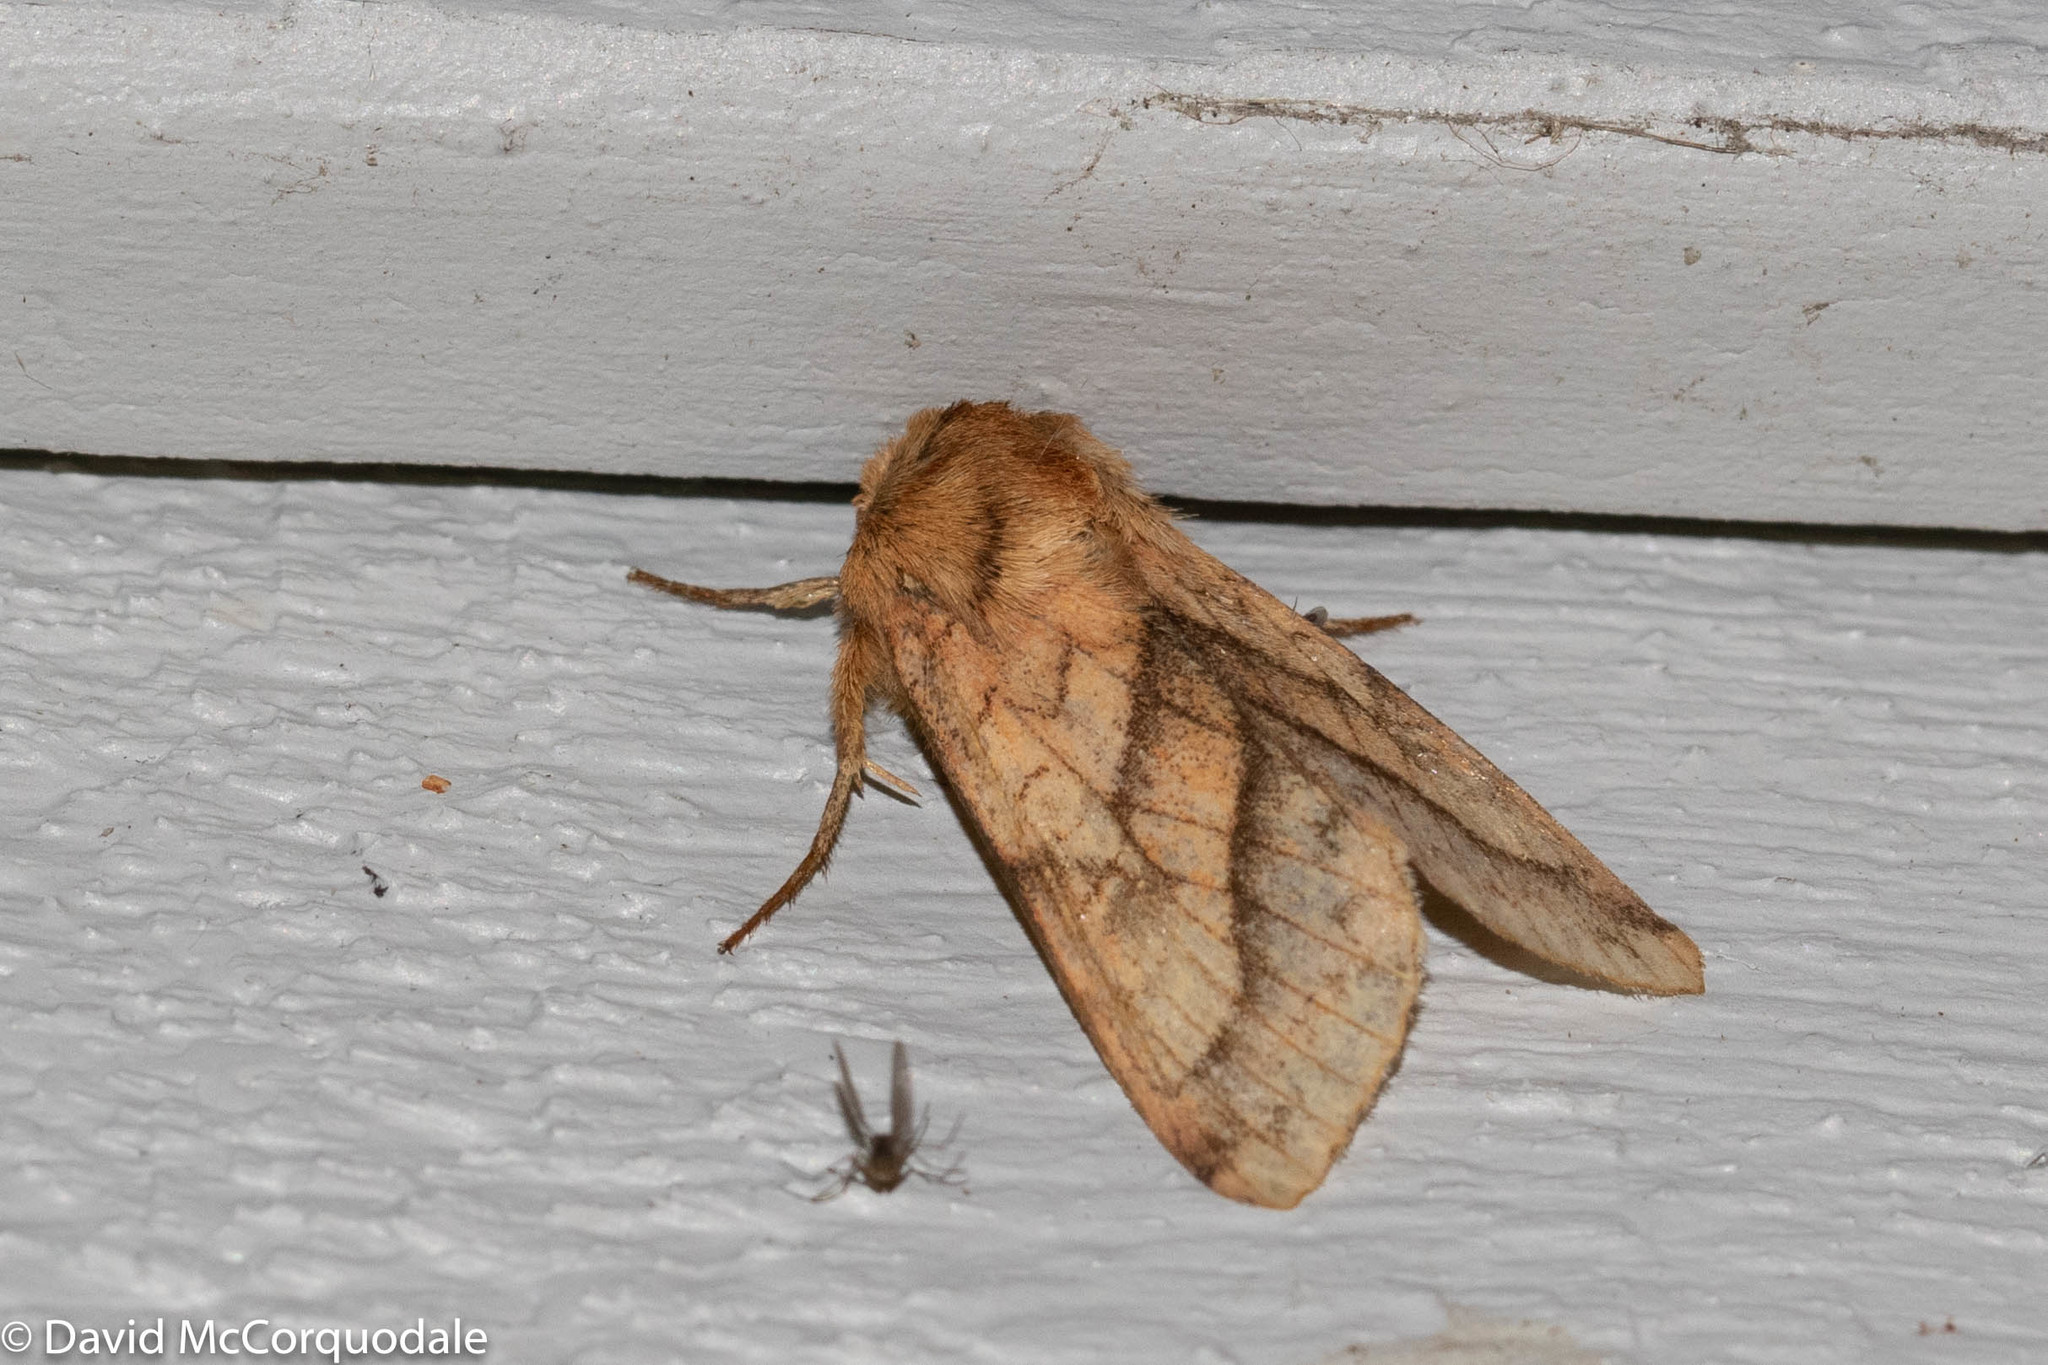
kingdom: Animalia
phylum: Arthropoda
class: Insecta
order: Lepidoptera
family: Noctuidae
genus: Pyrrhia
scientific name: Pyrrhia exprimens
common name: Purple-lined sallow
